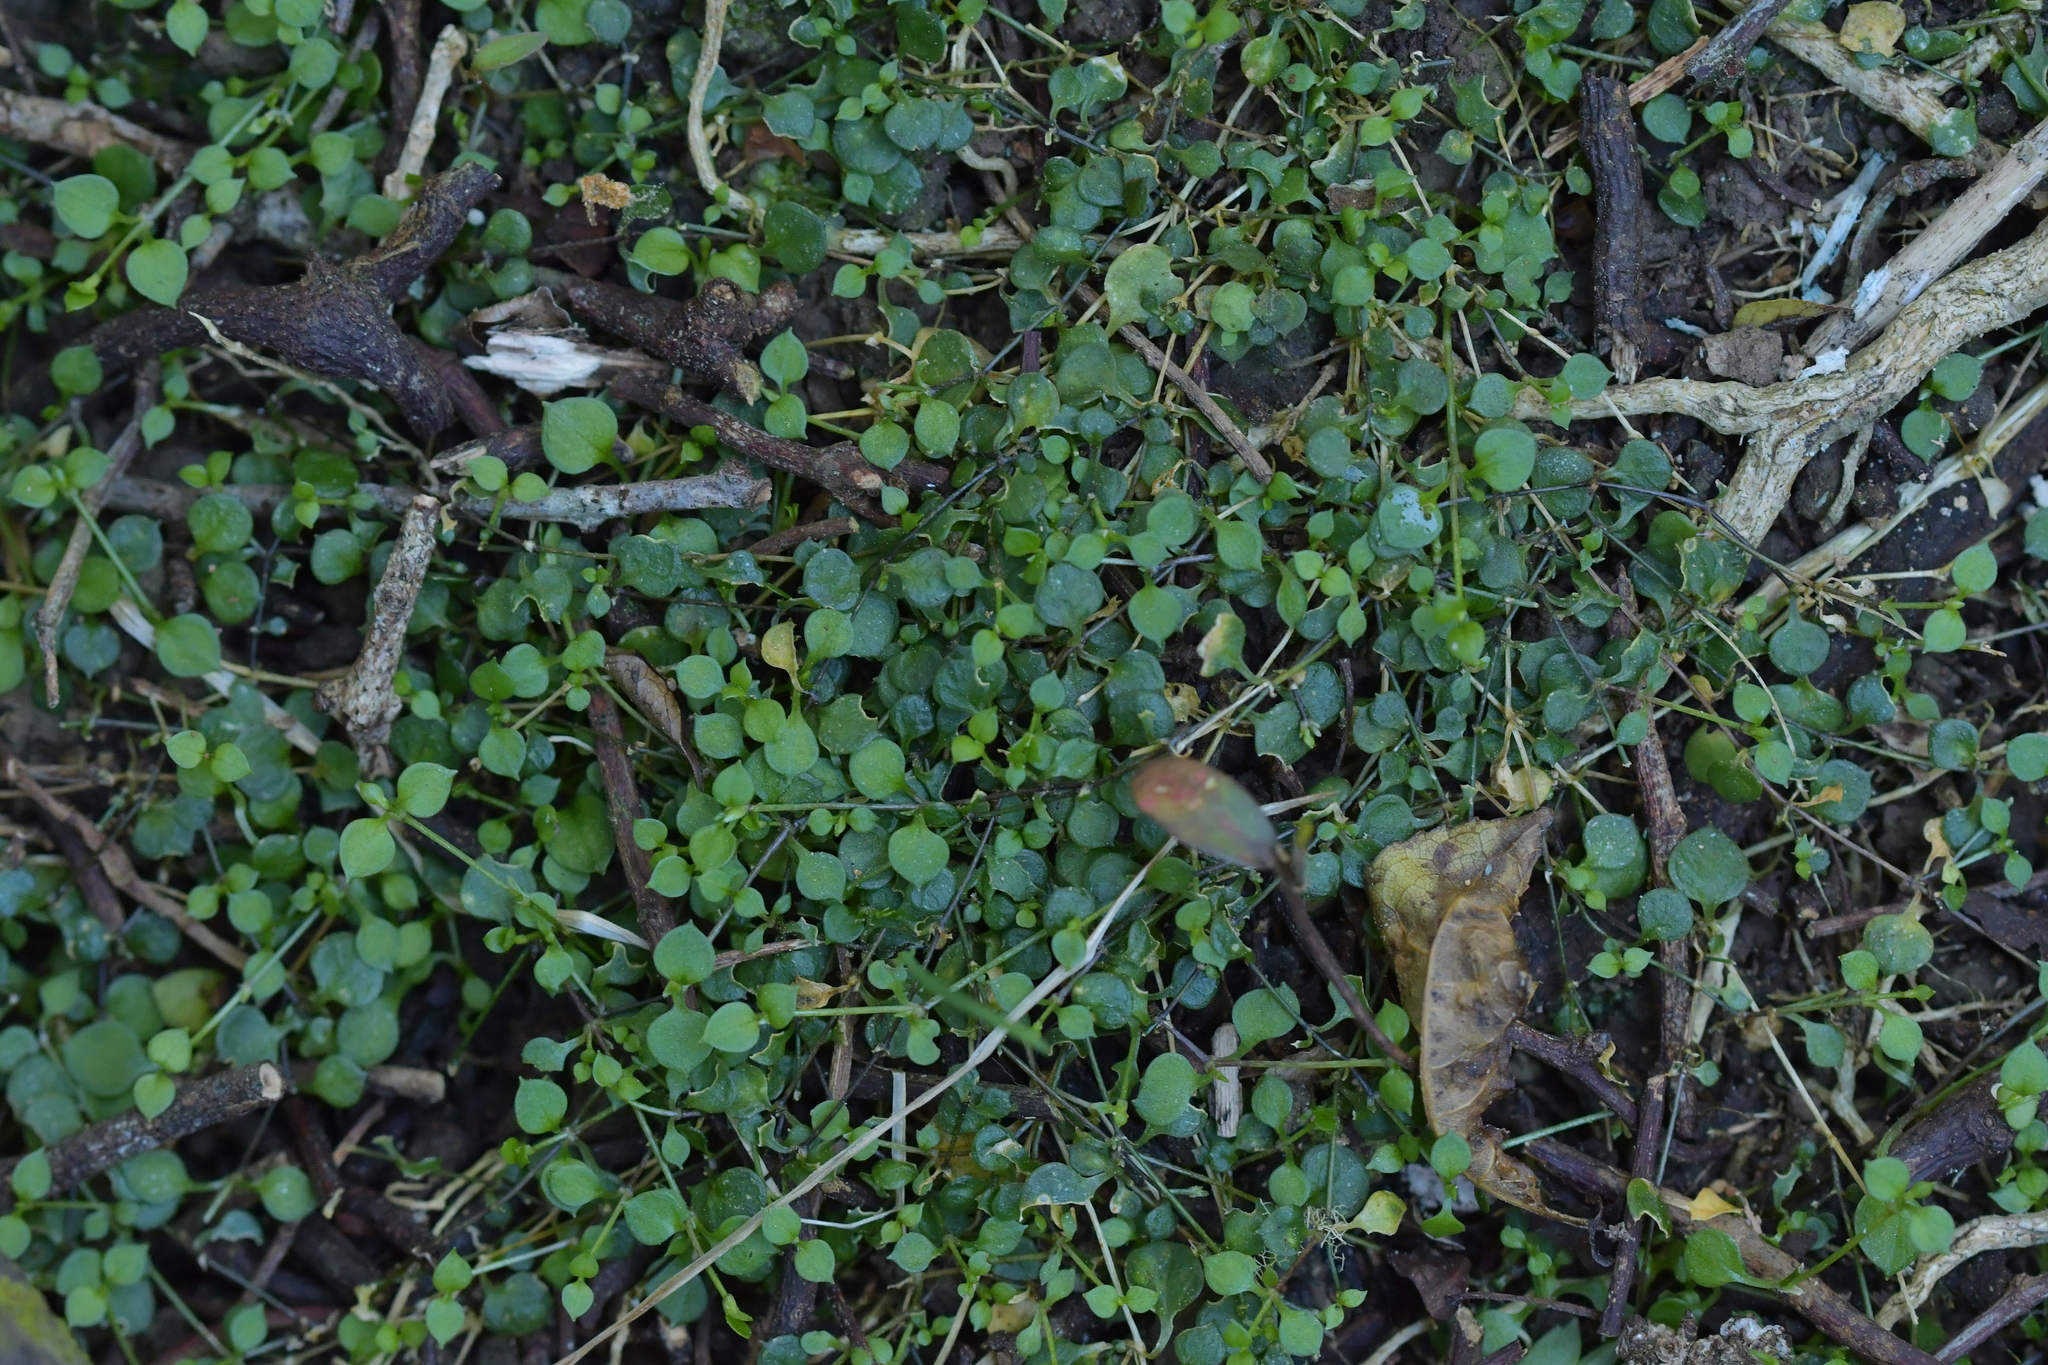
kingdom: Plantae
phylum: Tracheophyta
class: Magnoliopsida
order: Caryophyllales
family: Caryophyllaceae
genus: Stellaria
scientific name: Stellaria parviflora
